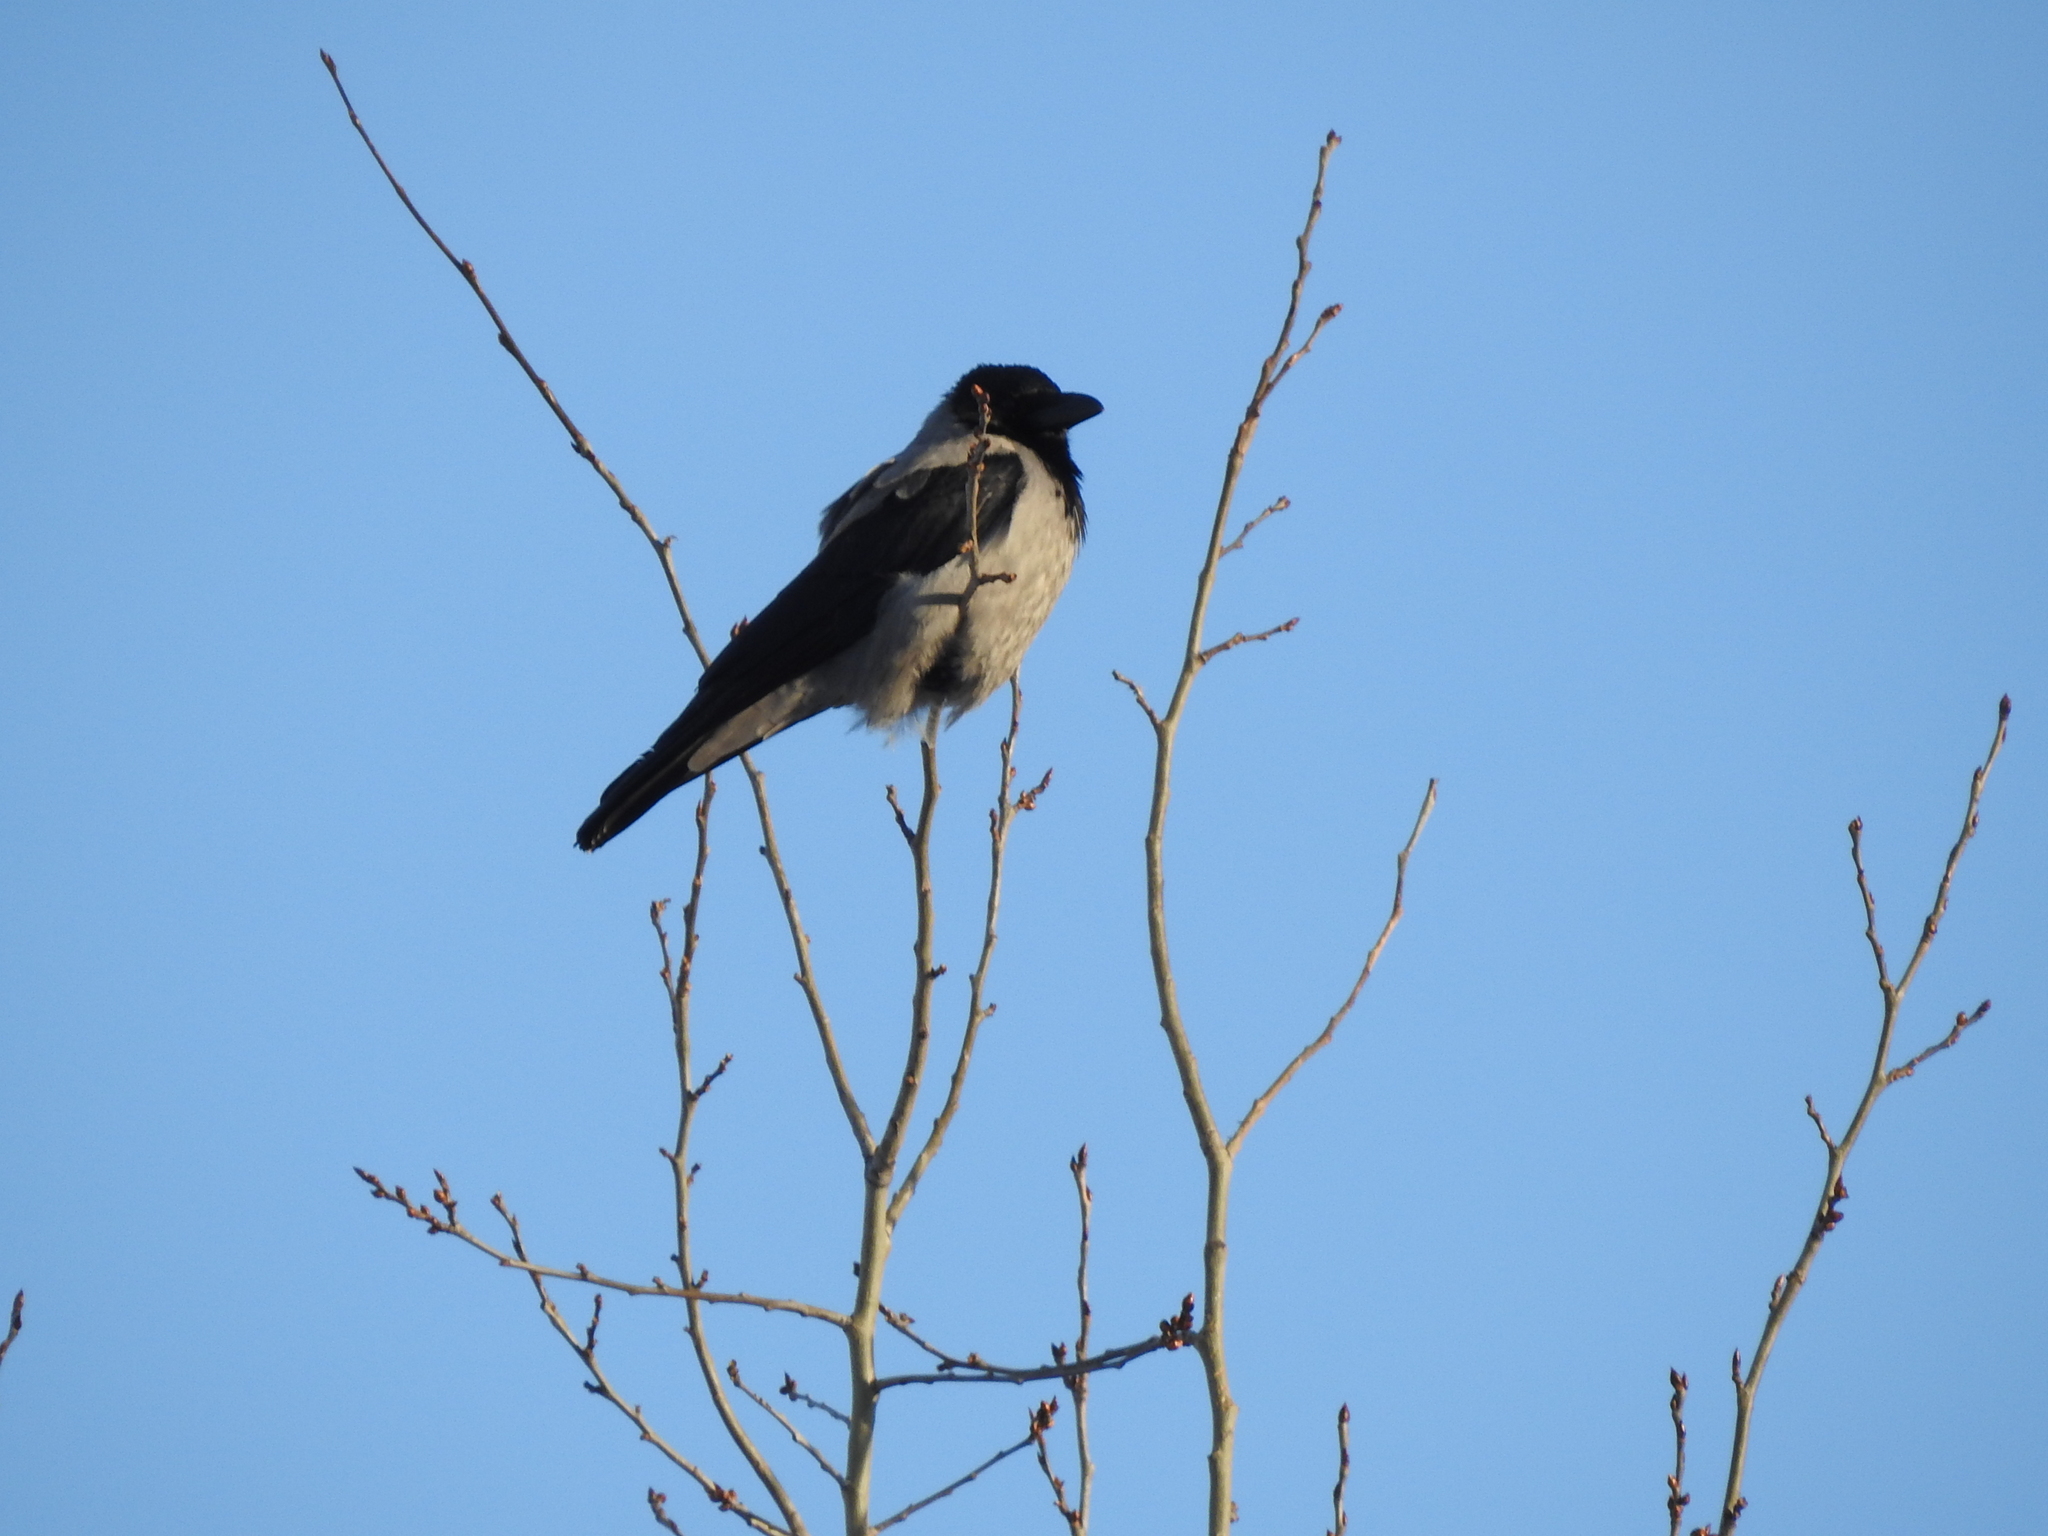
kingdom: Animalia
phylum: Chordata
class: Aves
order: Passeriformes
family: Corvidae
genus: Corvus
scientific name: Corvus cornix
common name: Hooded crow
